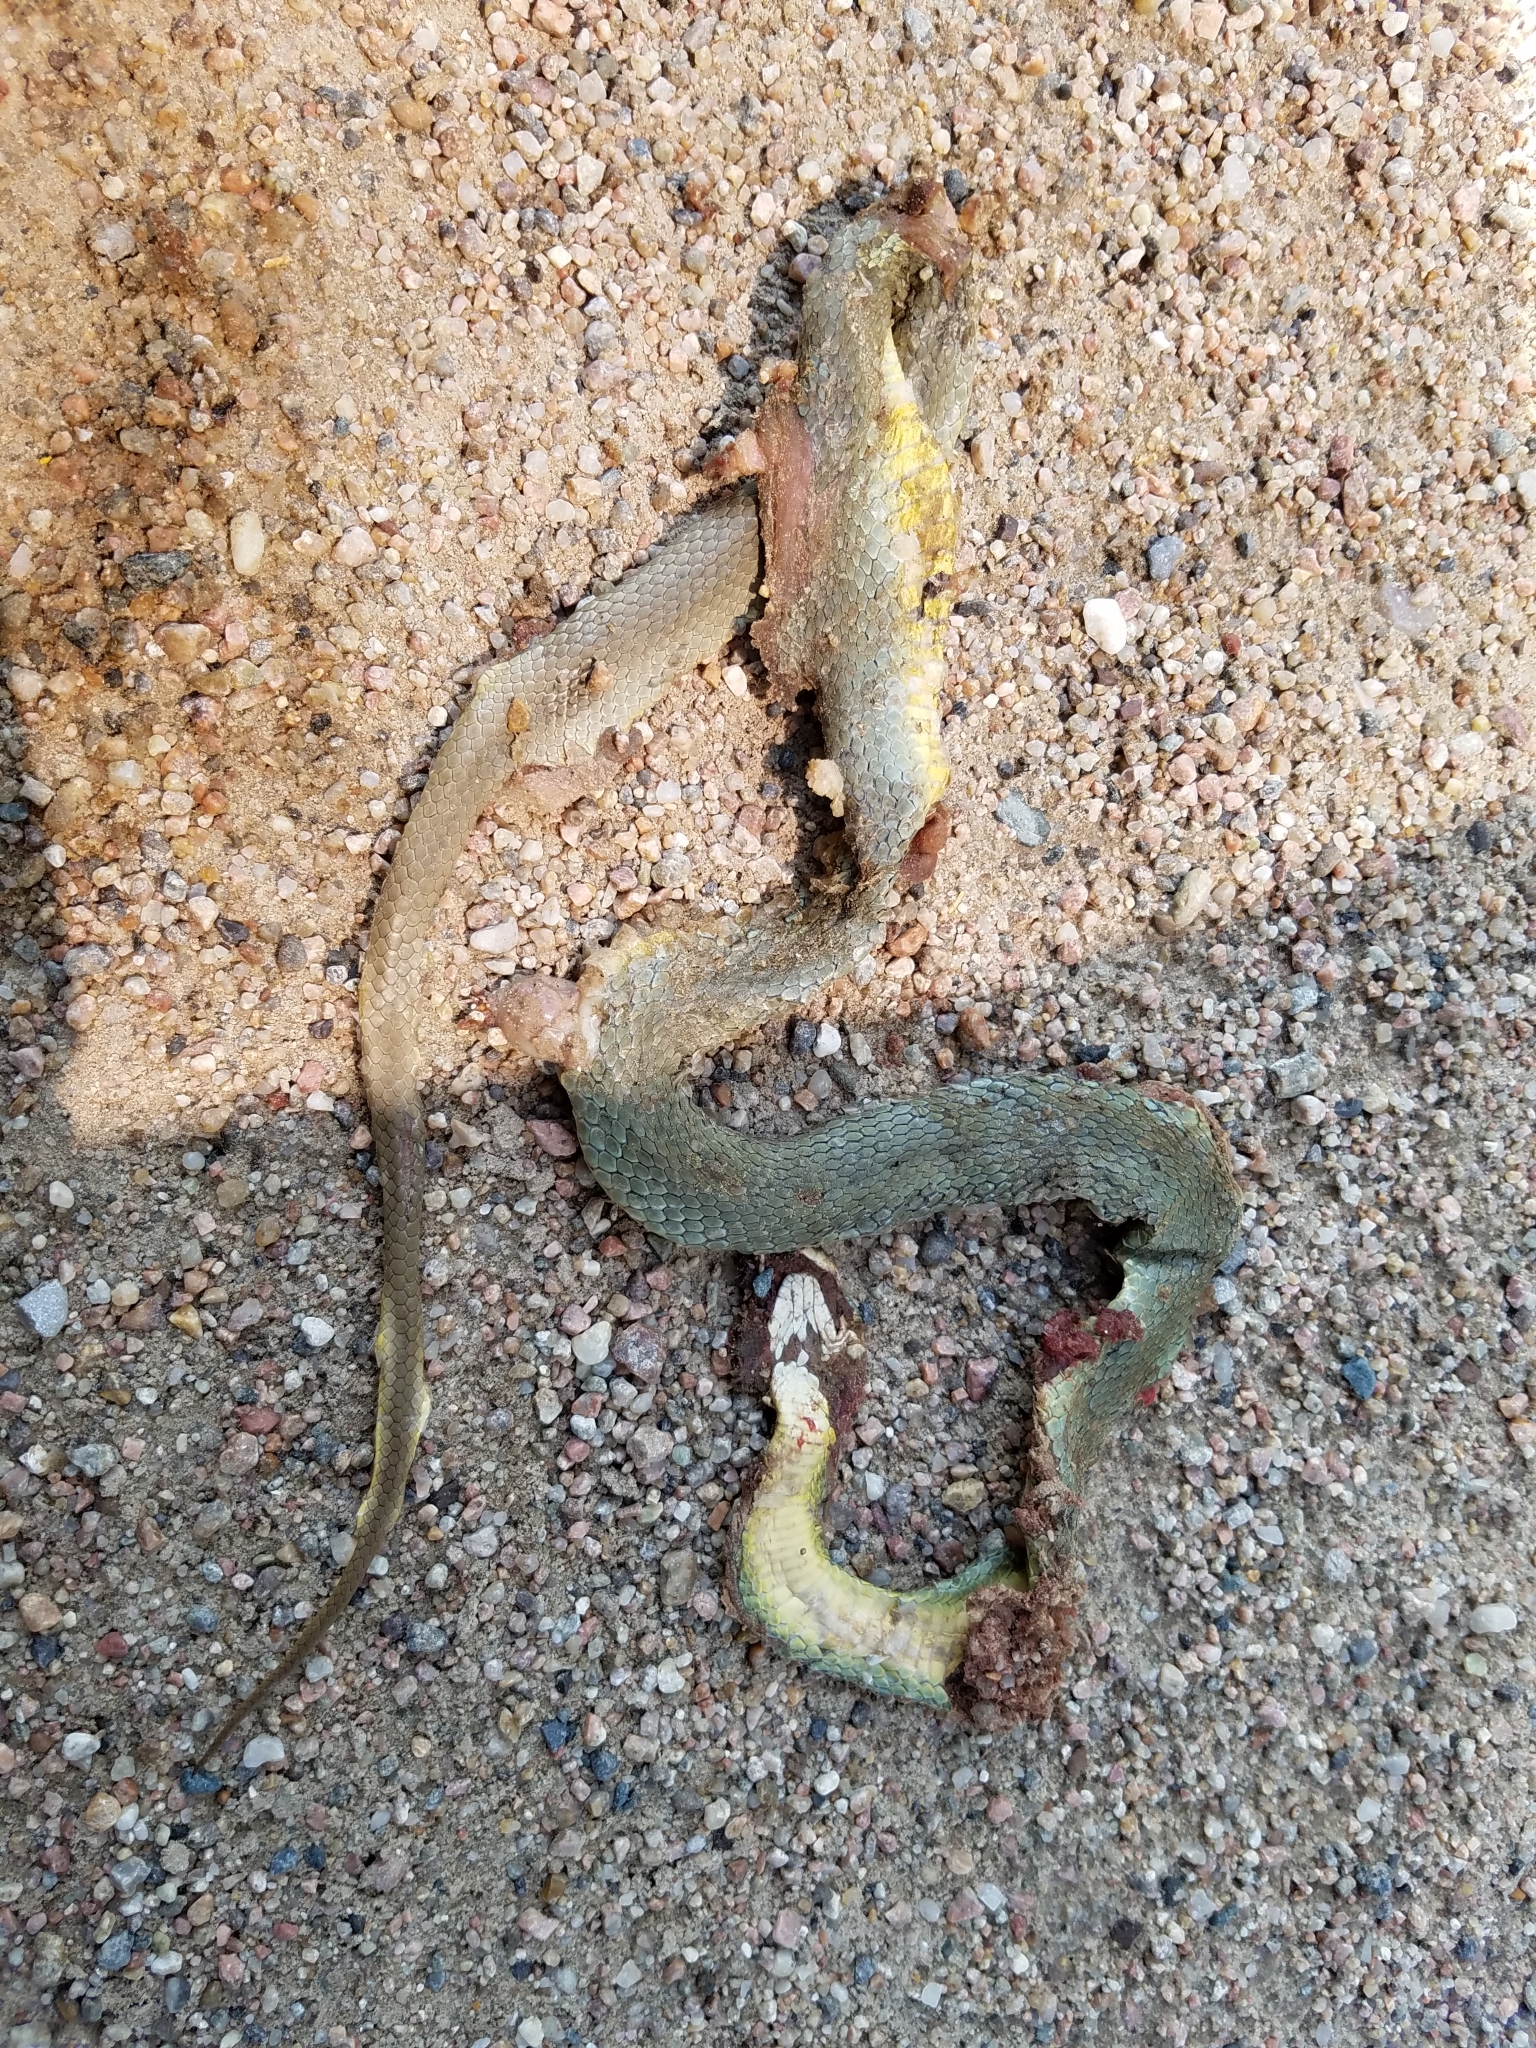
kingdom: Animalia
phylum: Chordata
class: Squamata
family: Colubridae
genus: Coluber
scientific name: Coluber constrictor
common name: Eastern racer
